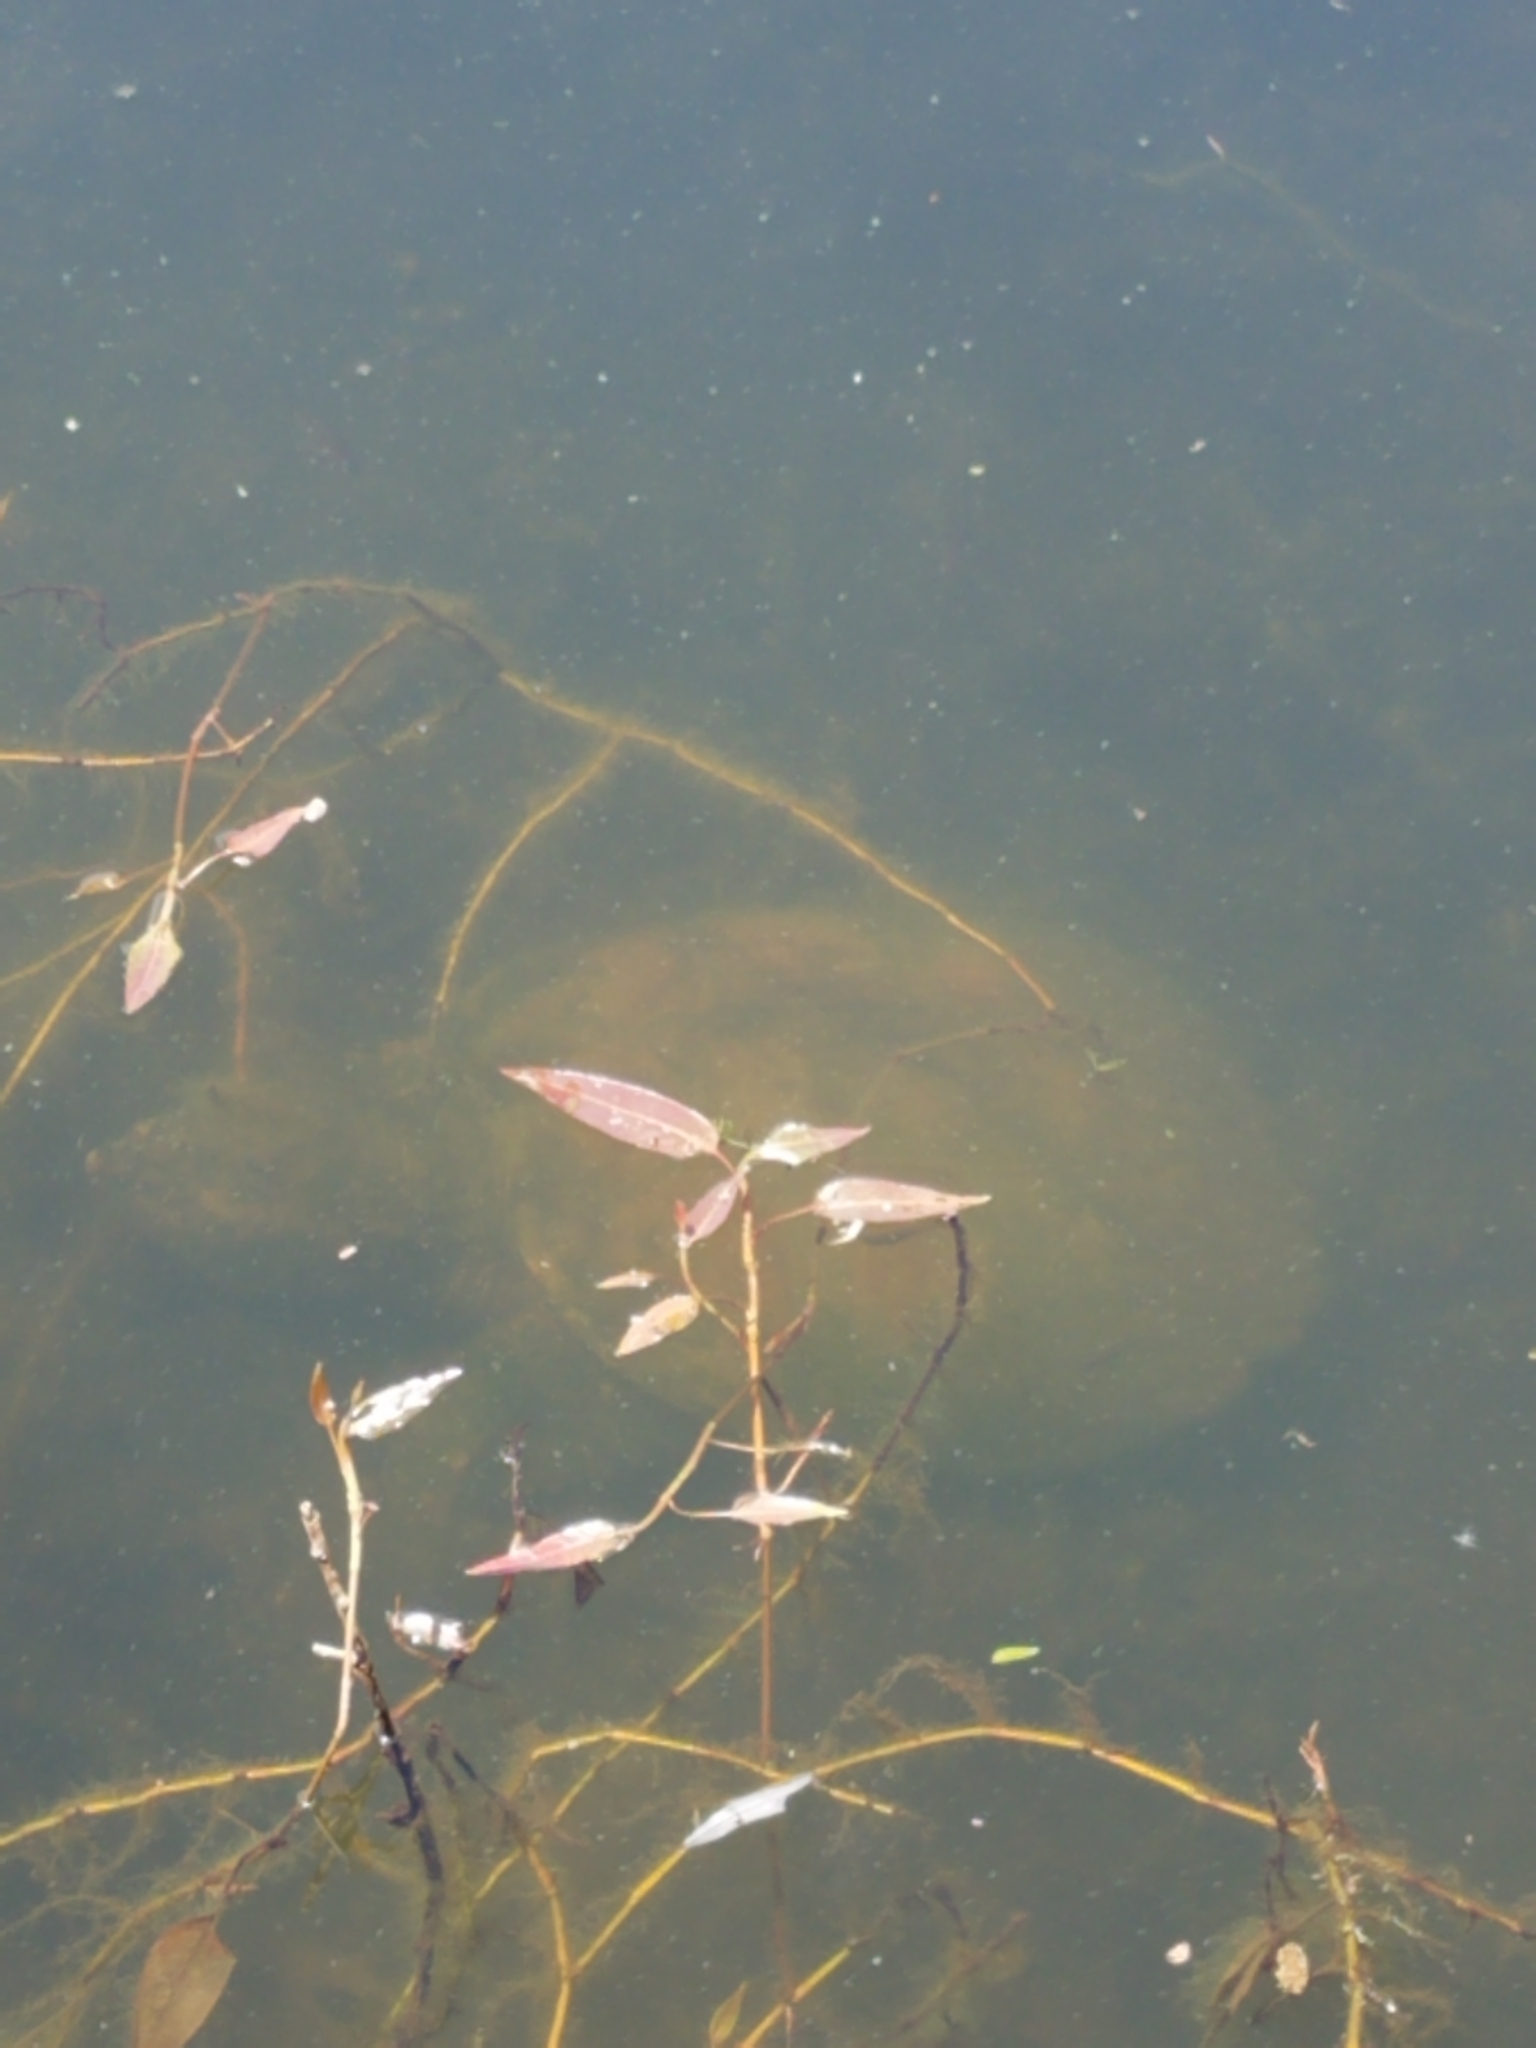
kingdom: Animalia
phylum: Chordata
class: Testudines
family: Chelydridae
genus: Chelydra
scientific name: Chelydra serpentina
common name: Common snapping turtle
